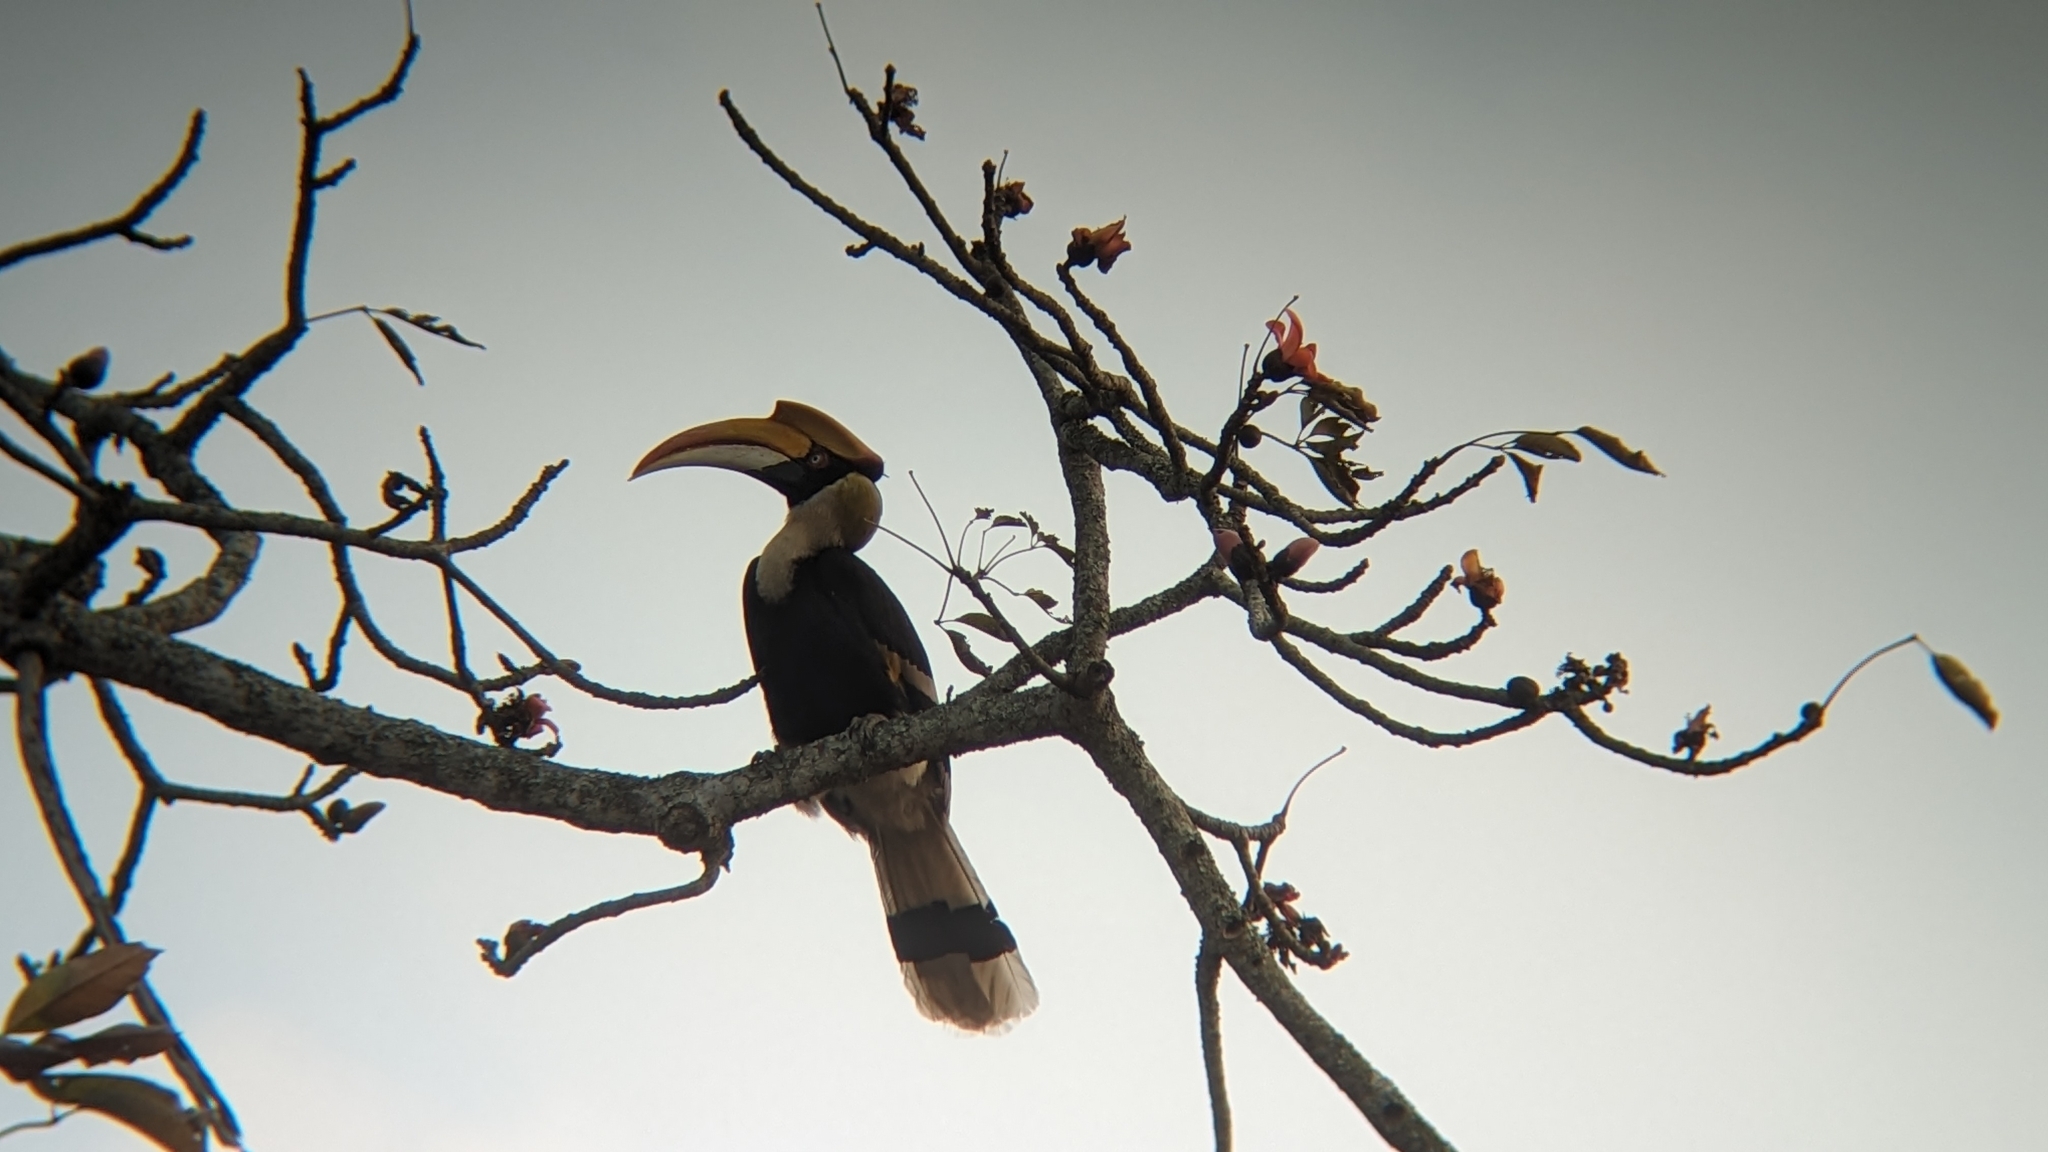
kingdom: Animalia
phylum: Chordata
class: Aves
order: Bucerotiformes
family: Bucerotidae
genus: Buceros
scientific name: Buceros bicornis
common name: Great hornbill
